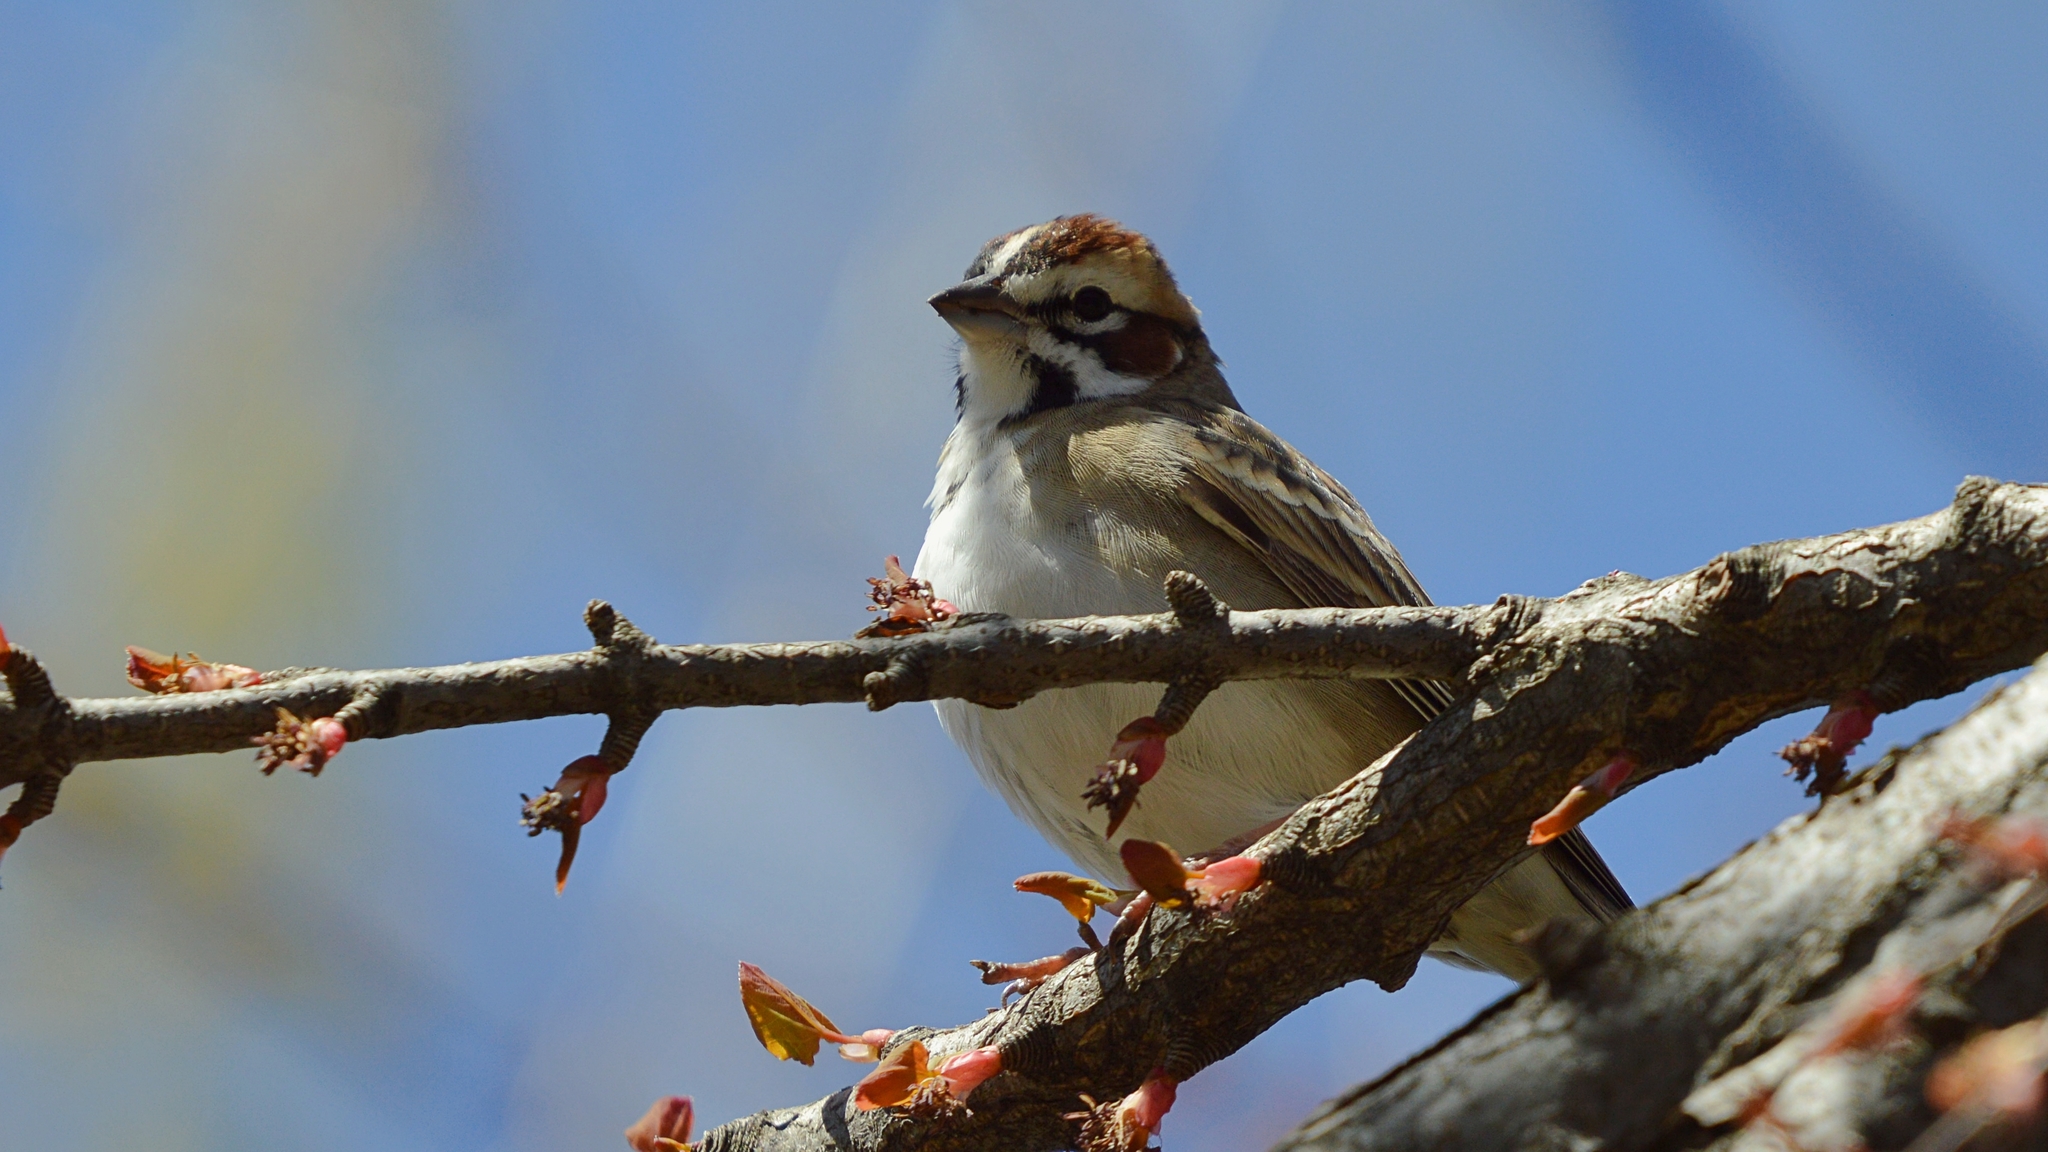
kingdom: Animalia
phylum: Chordata
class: Aves
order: Passeriformes
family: Passerellidae
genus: Chondestes
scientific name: Chondestes grammacus
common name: Lark sparrow
